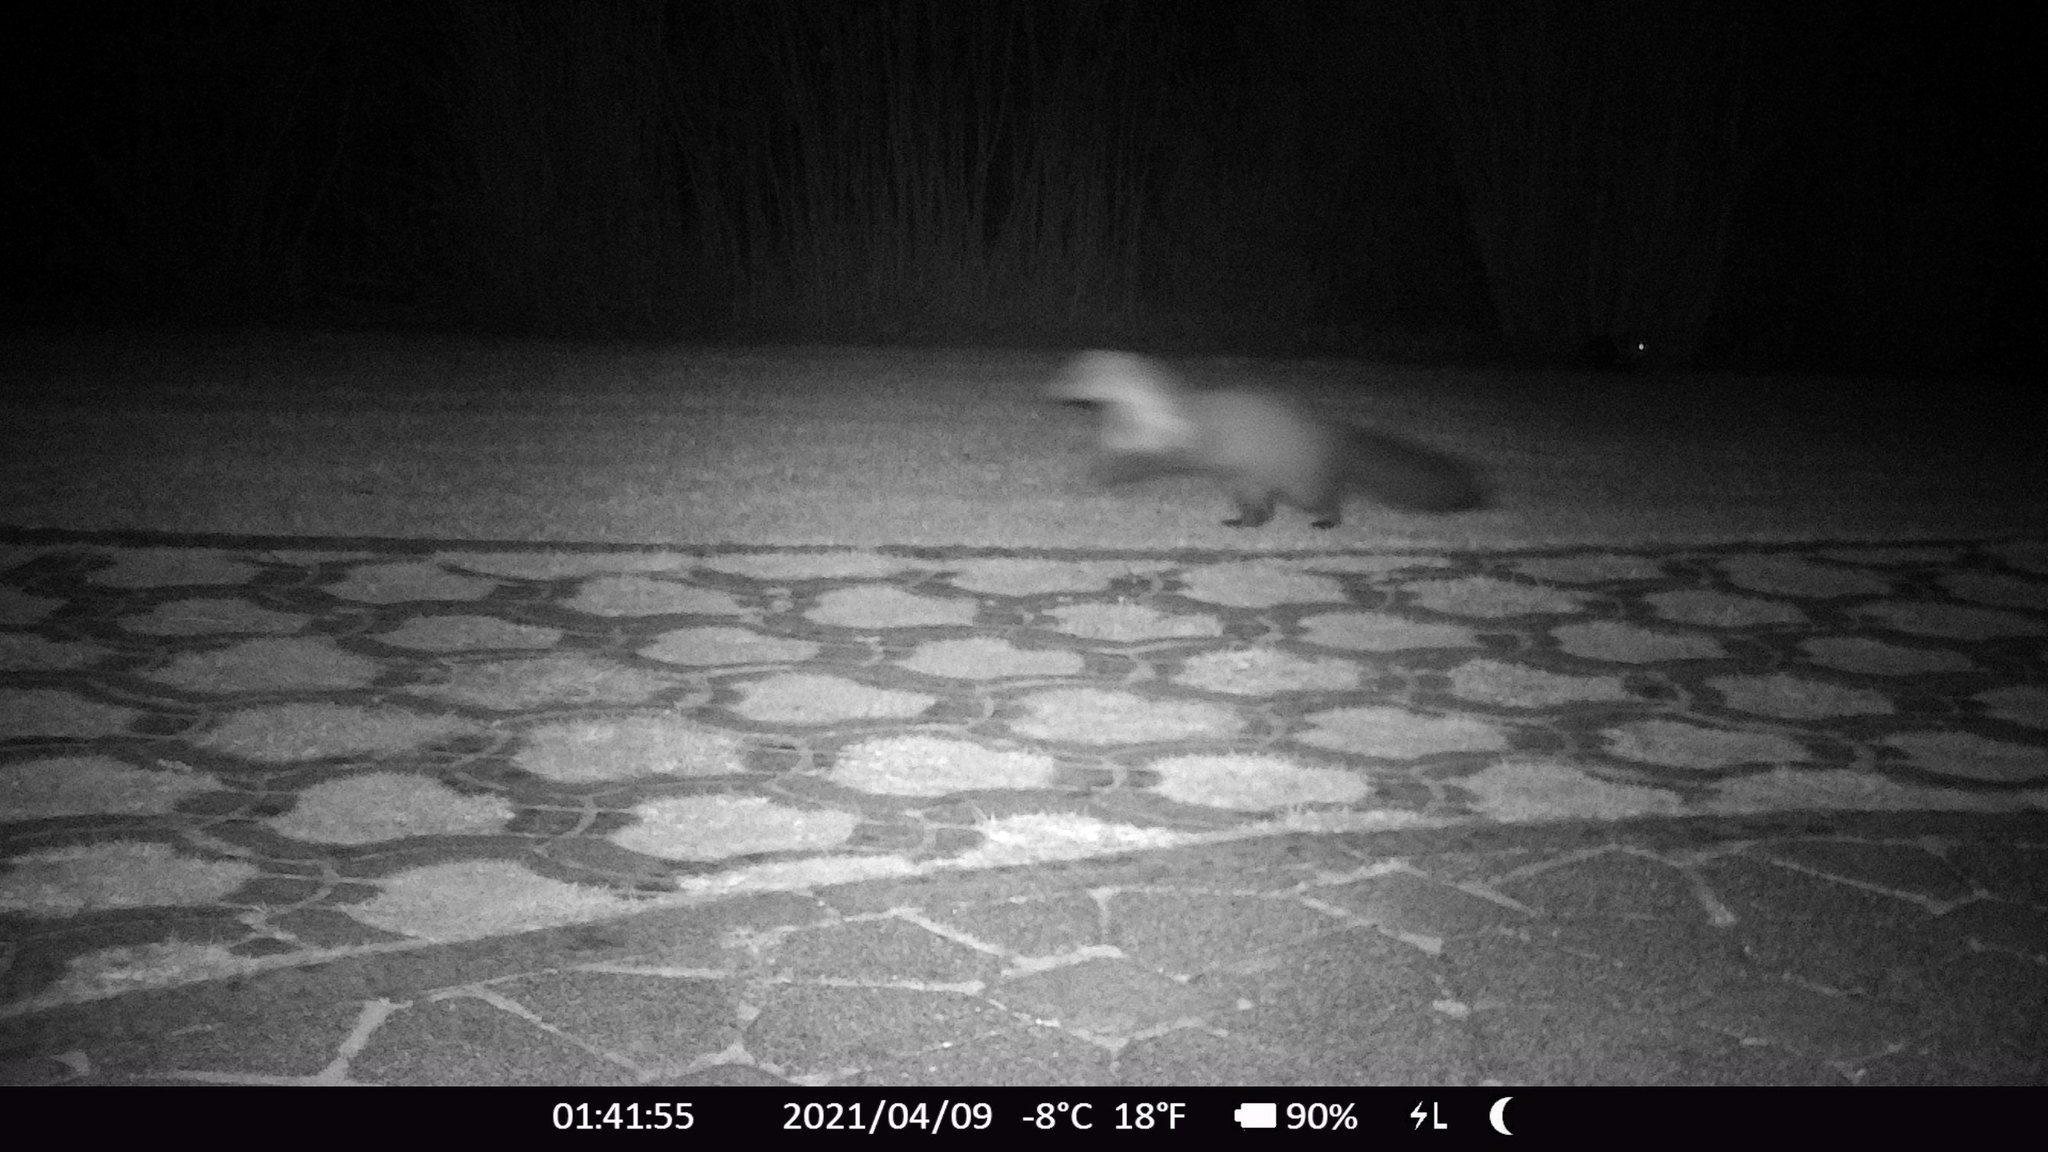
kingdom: Animalia
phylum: Chordata
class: Mammalia
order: Carnivora
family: Mustelidae
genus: Martes
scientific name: Martes foina
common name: Beech marten
